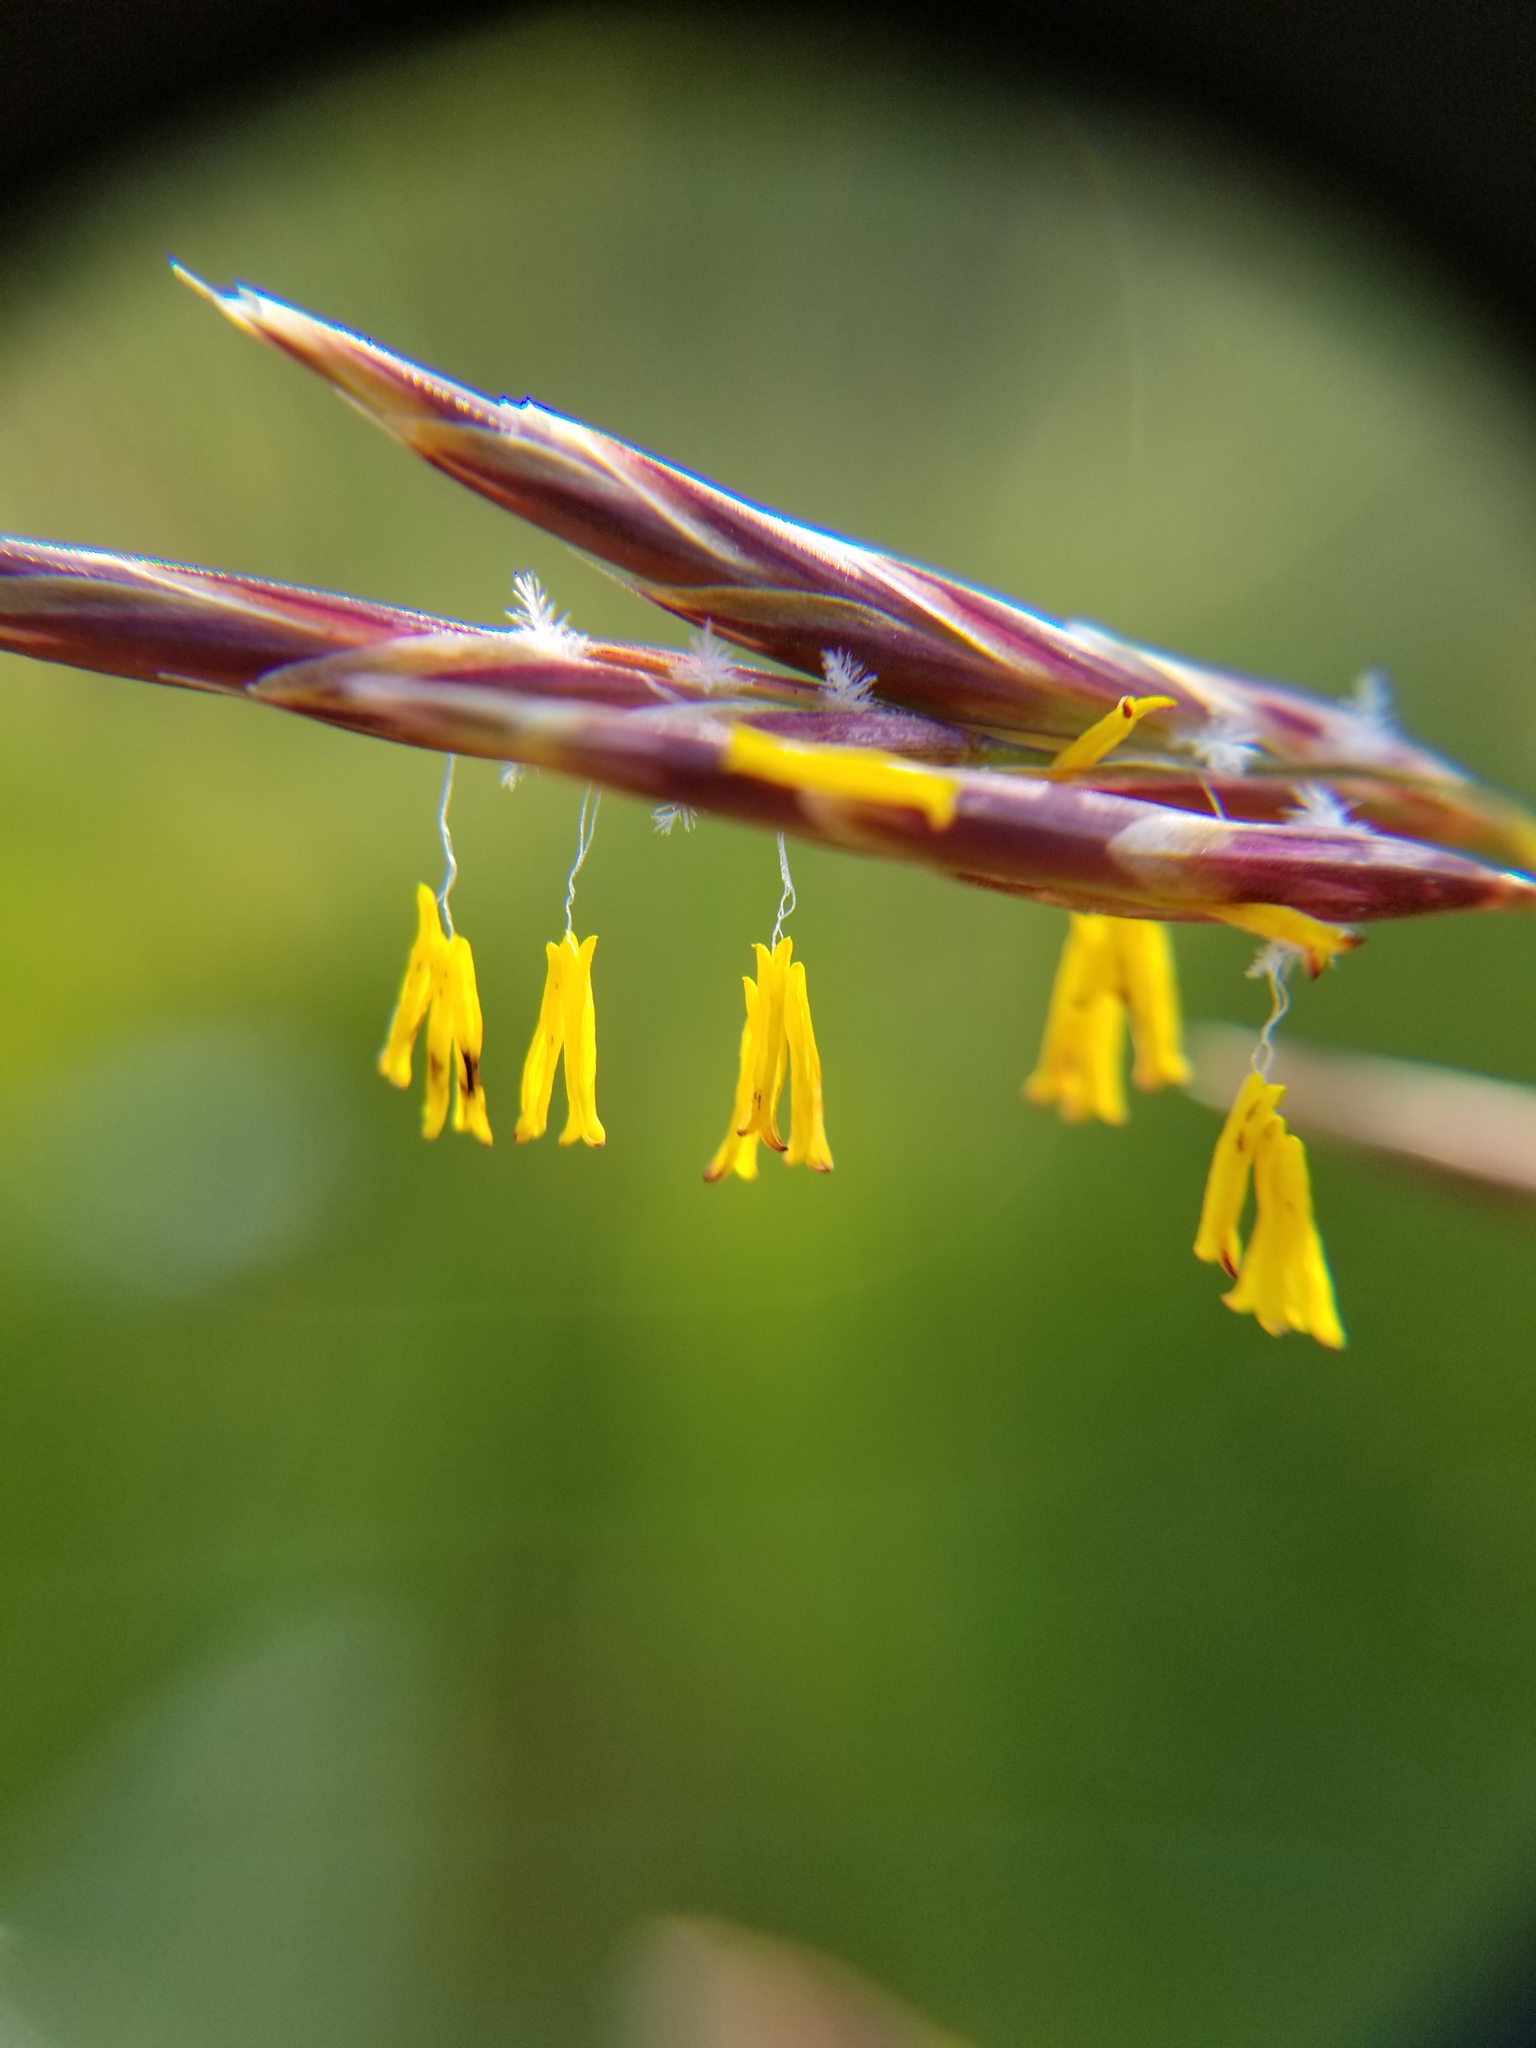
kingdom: Plantae
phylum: Tracheophyta
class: Liliopsida
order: Poales
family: Poaceae
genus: Bromus
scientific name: Bromus inermis
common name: Smooth brome
